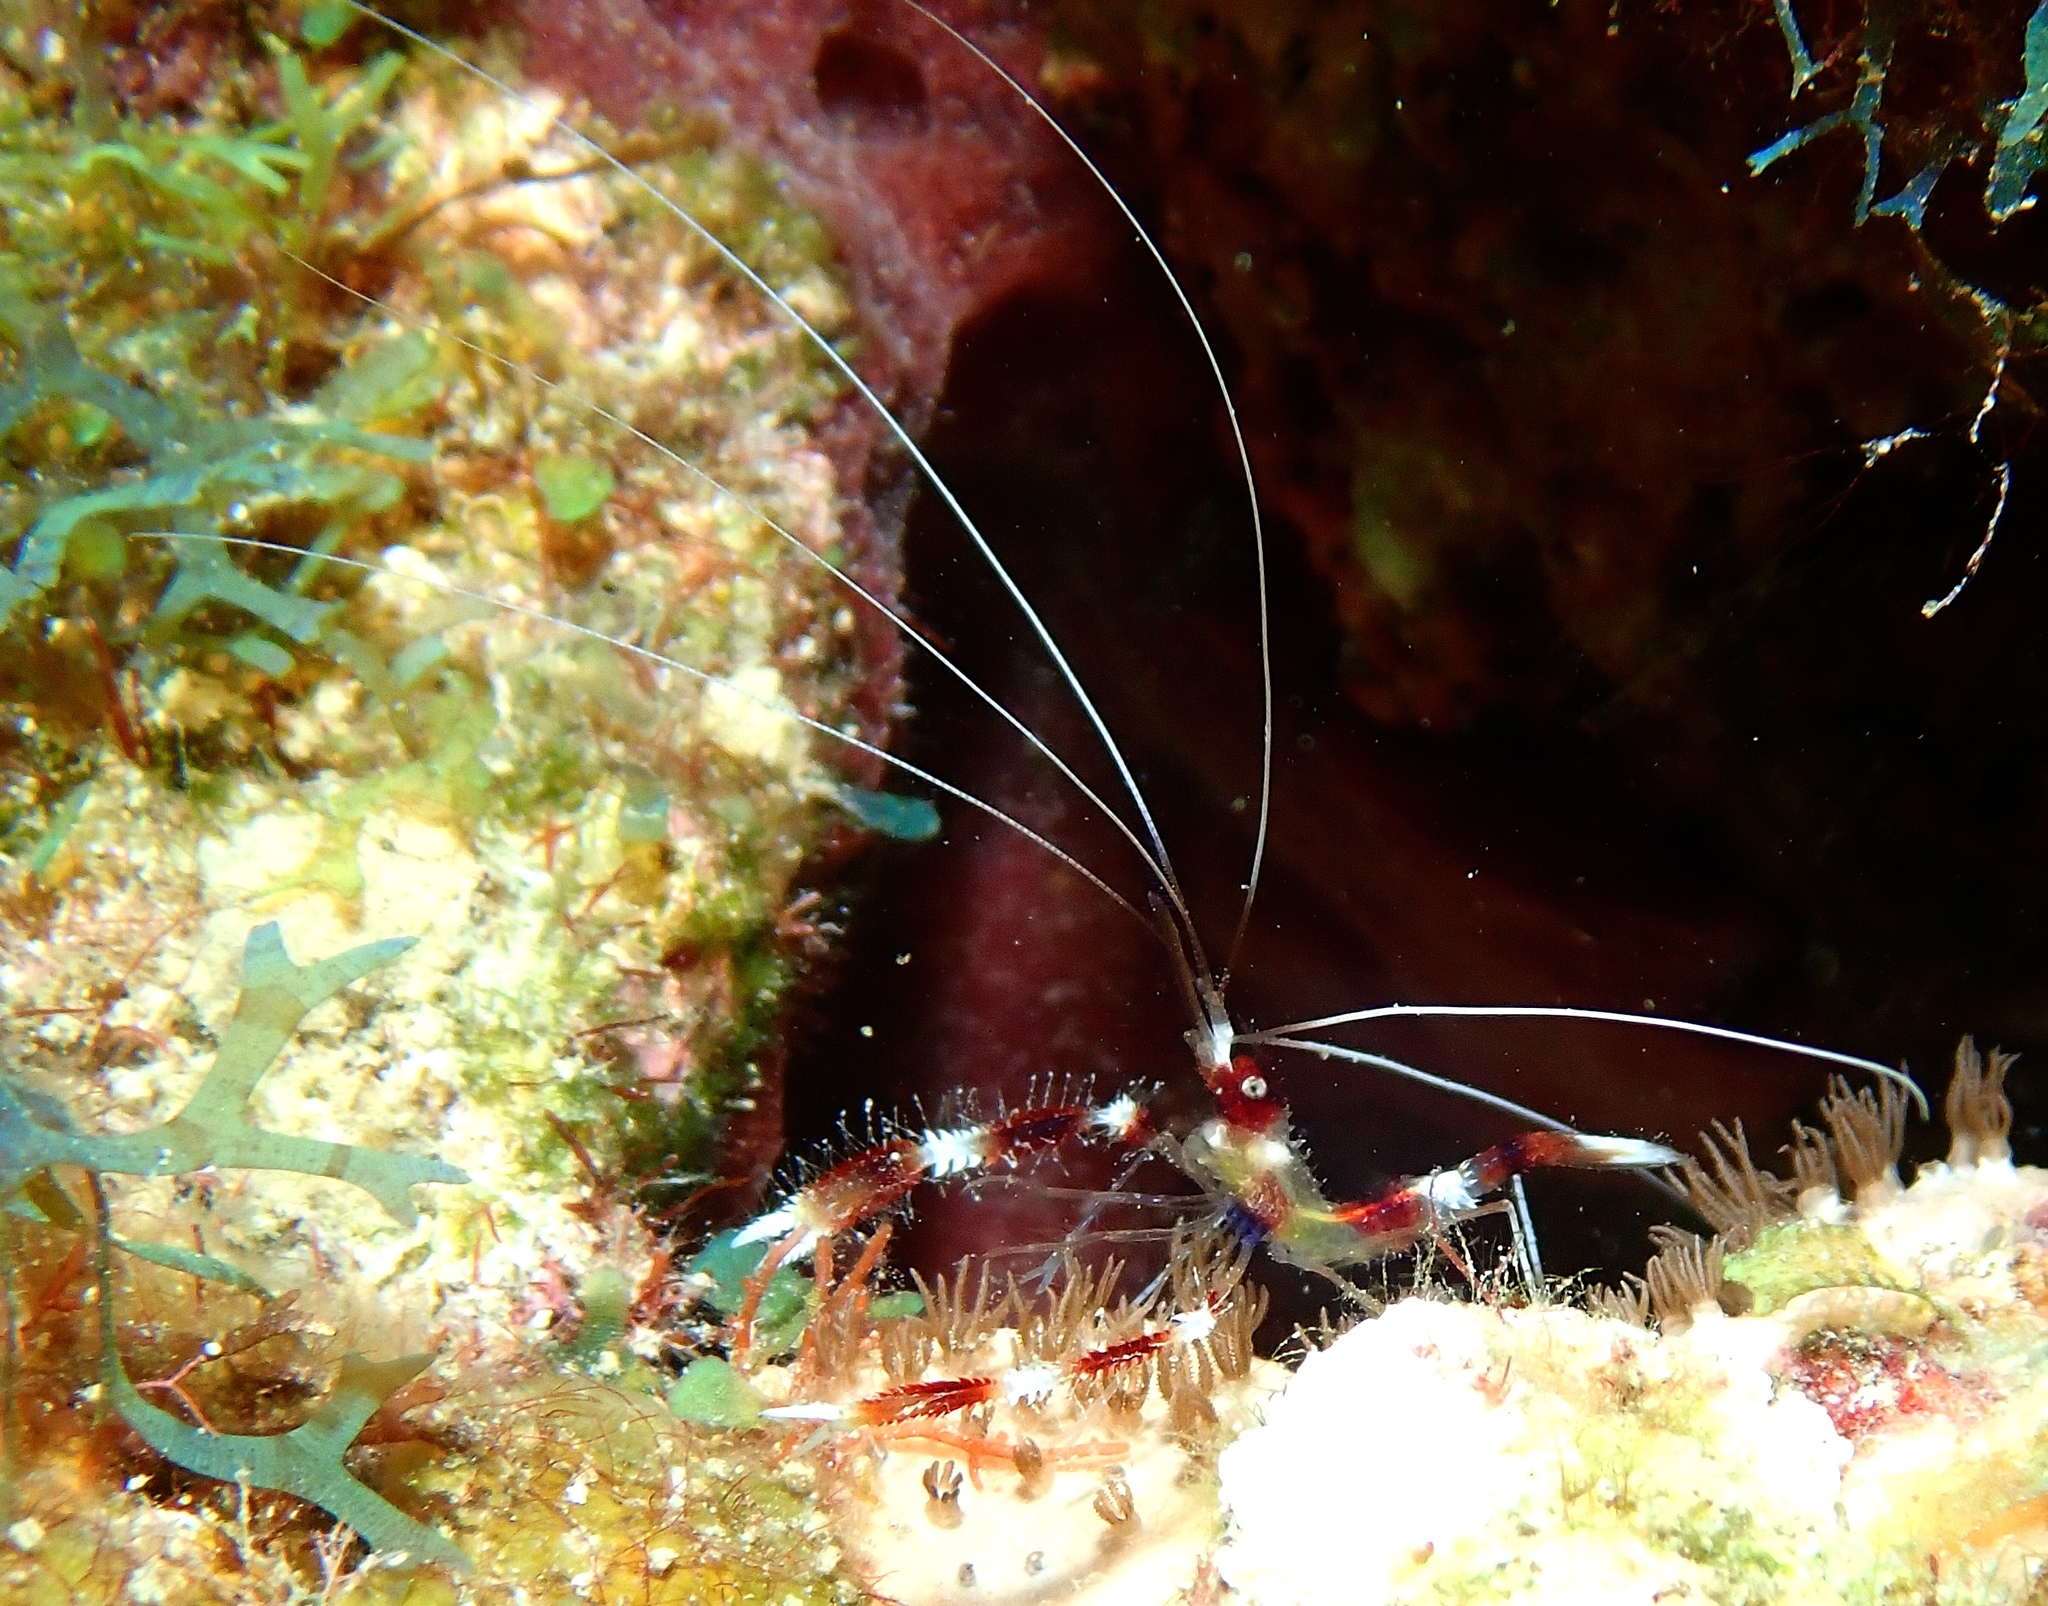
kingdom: Animalia
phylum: Arthropoda
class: Malacostraca
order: Decapoda
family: Stenopodidae
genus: Stenopus
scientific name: Stenopus hispidus
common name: Banded coral shrimp
